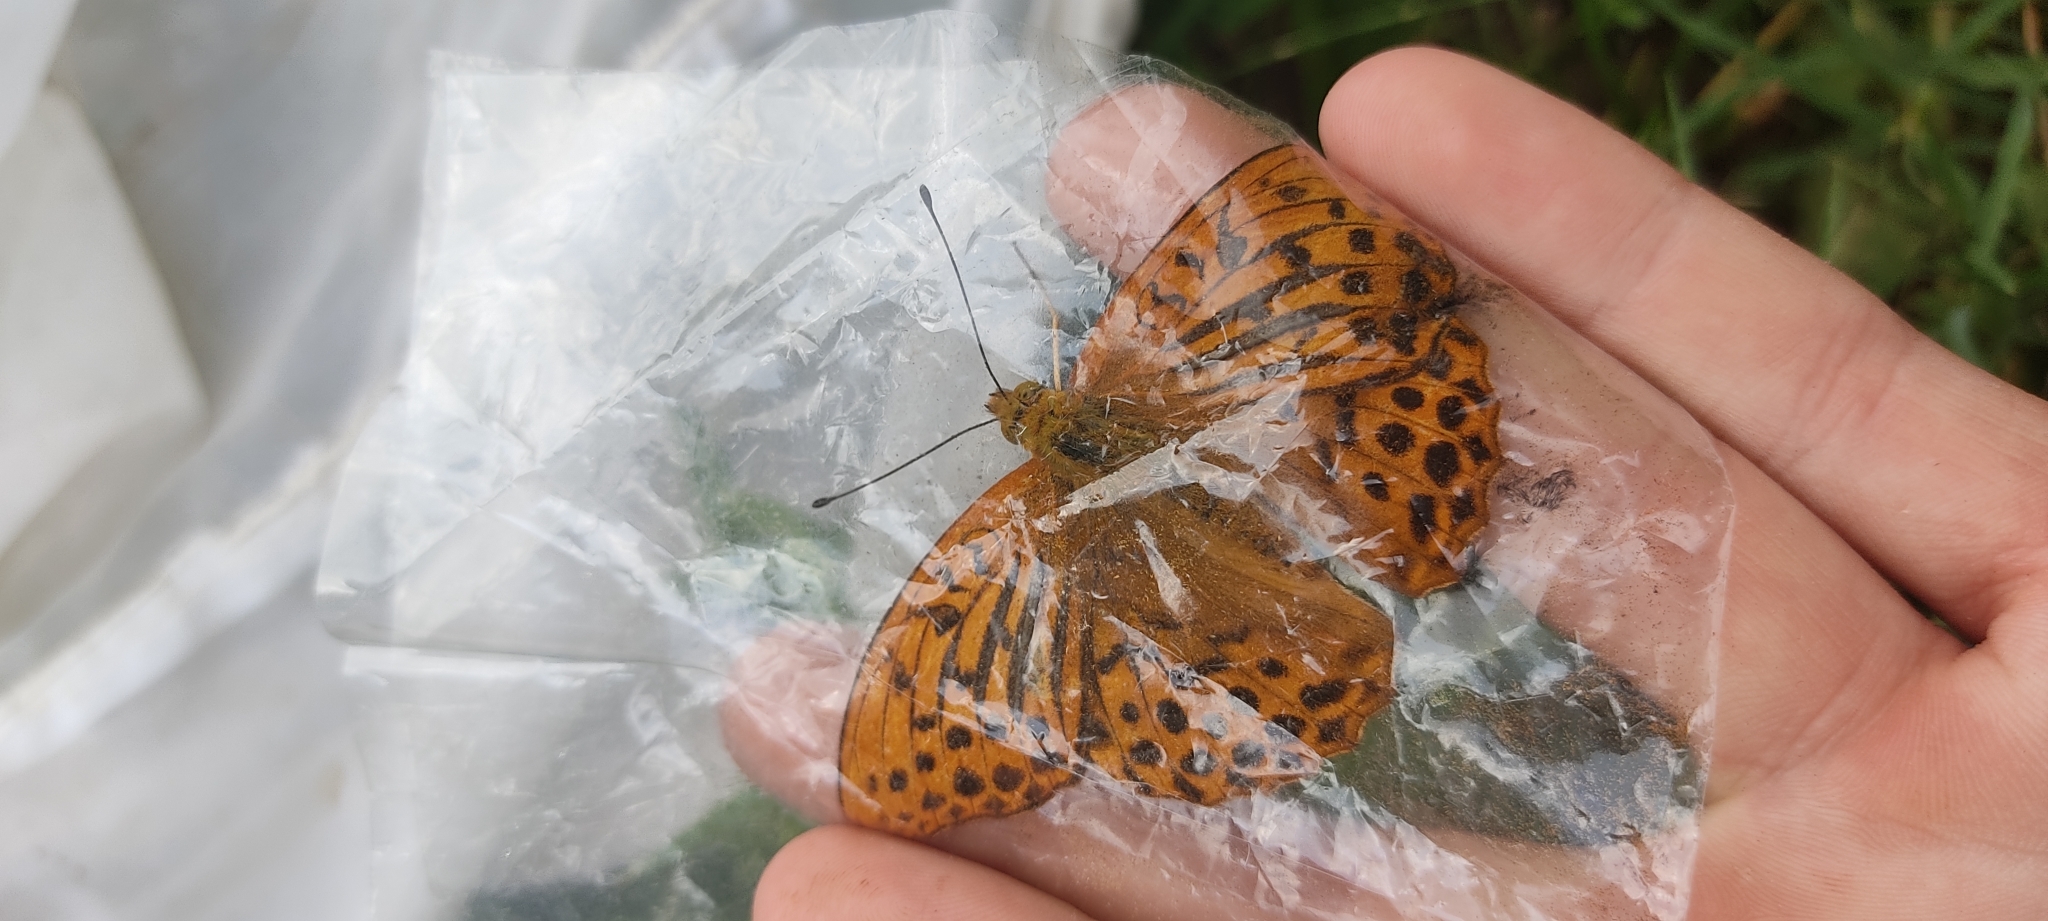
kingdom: Animalia
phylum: Arthropoda
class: Insecta
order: Lepidoptera
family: Nymphalidae
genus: Argynnis
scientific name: Argynnis paphia
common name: Silver-washed fritillary
